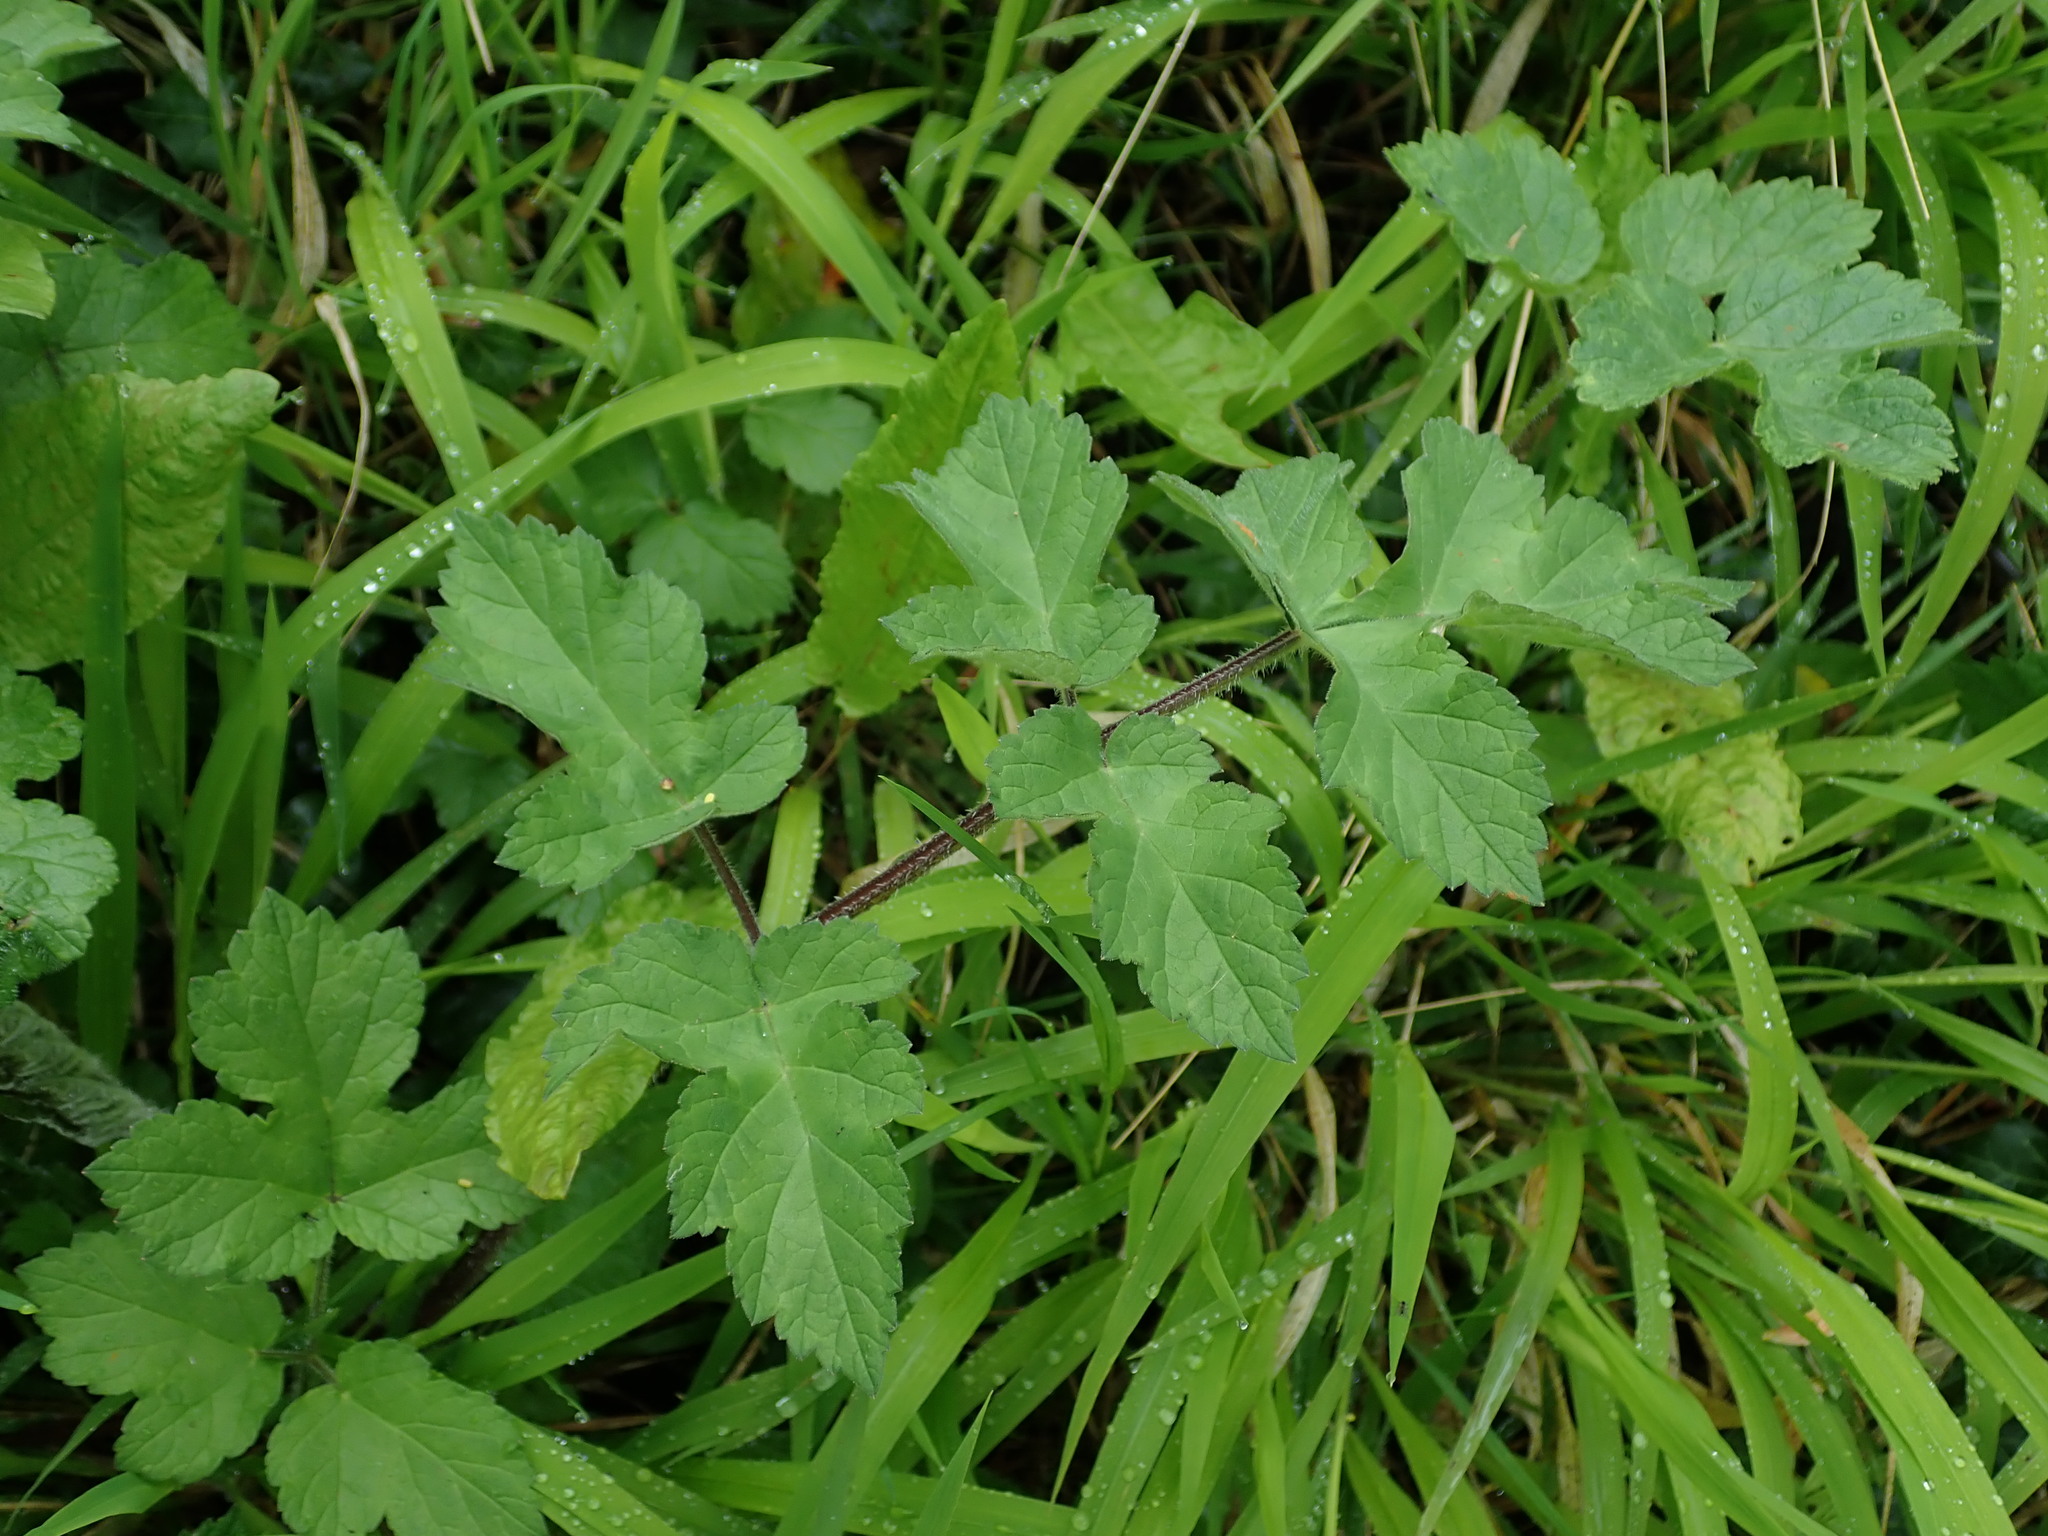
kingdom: Plantae
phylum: Tracheophyta
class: Magnoliopsida
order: Apiales
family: Apiaceae
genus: Heracleum
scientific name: Heracleum sphondylium
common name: Hogweed
